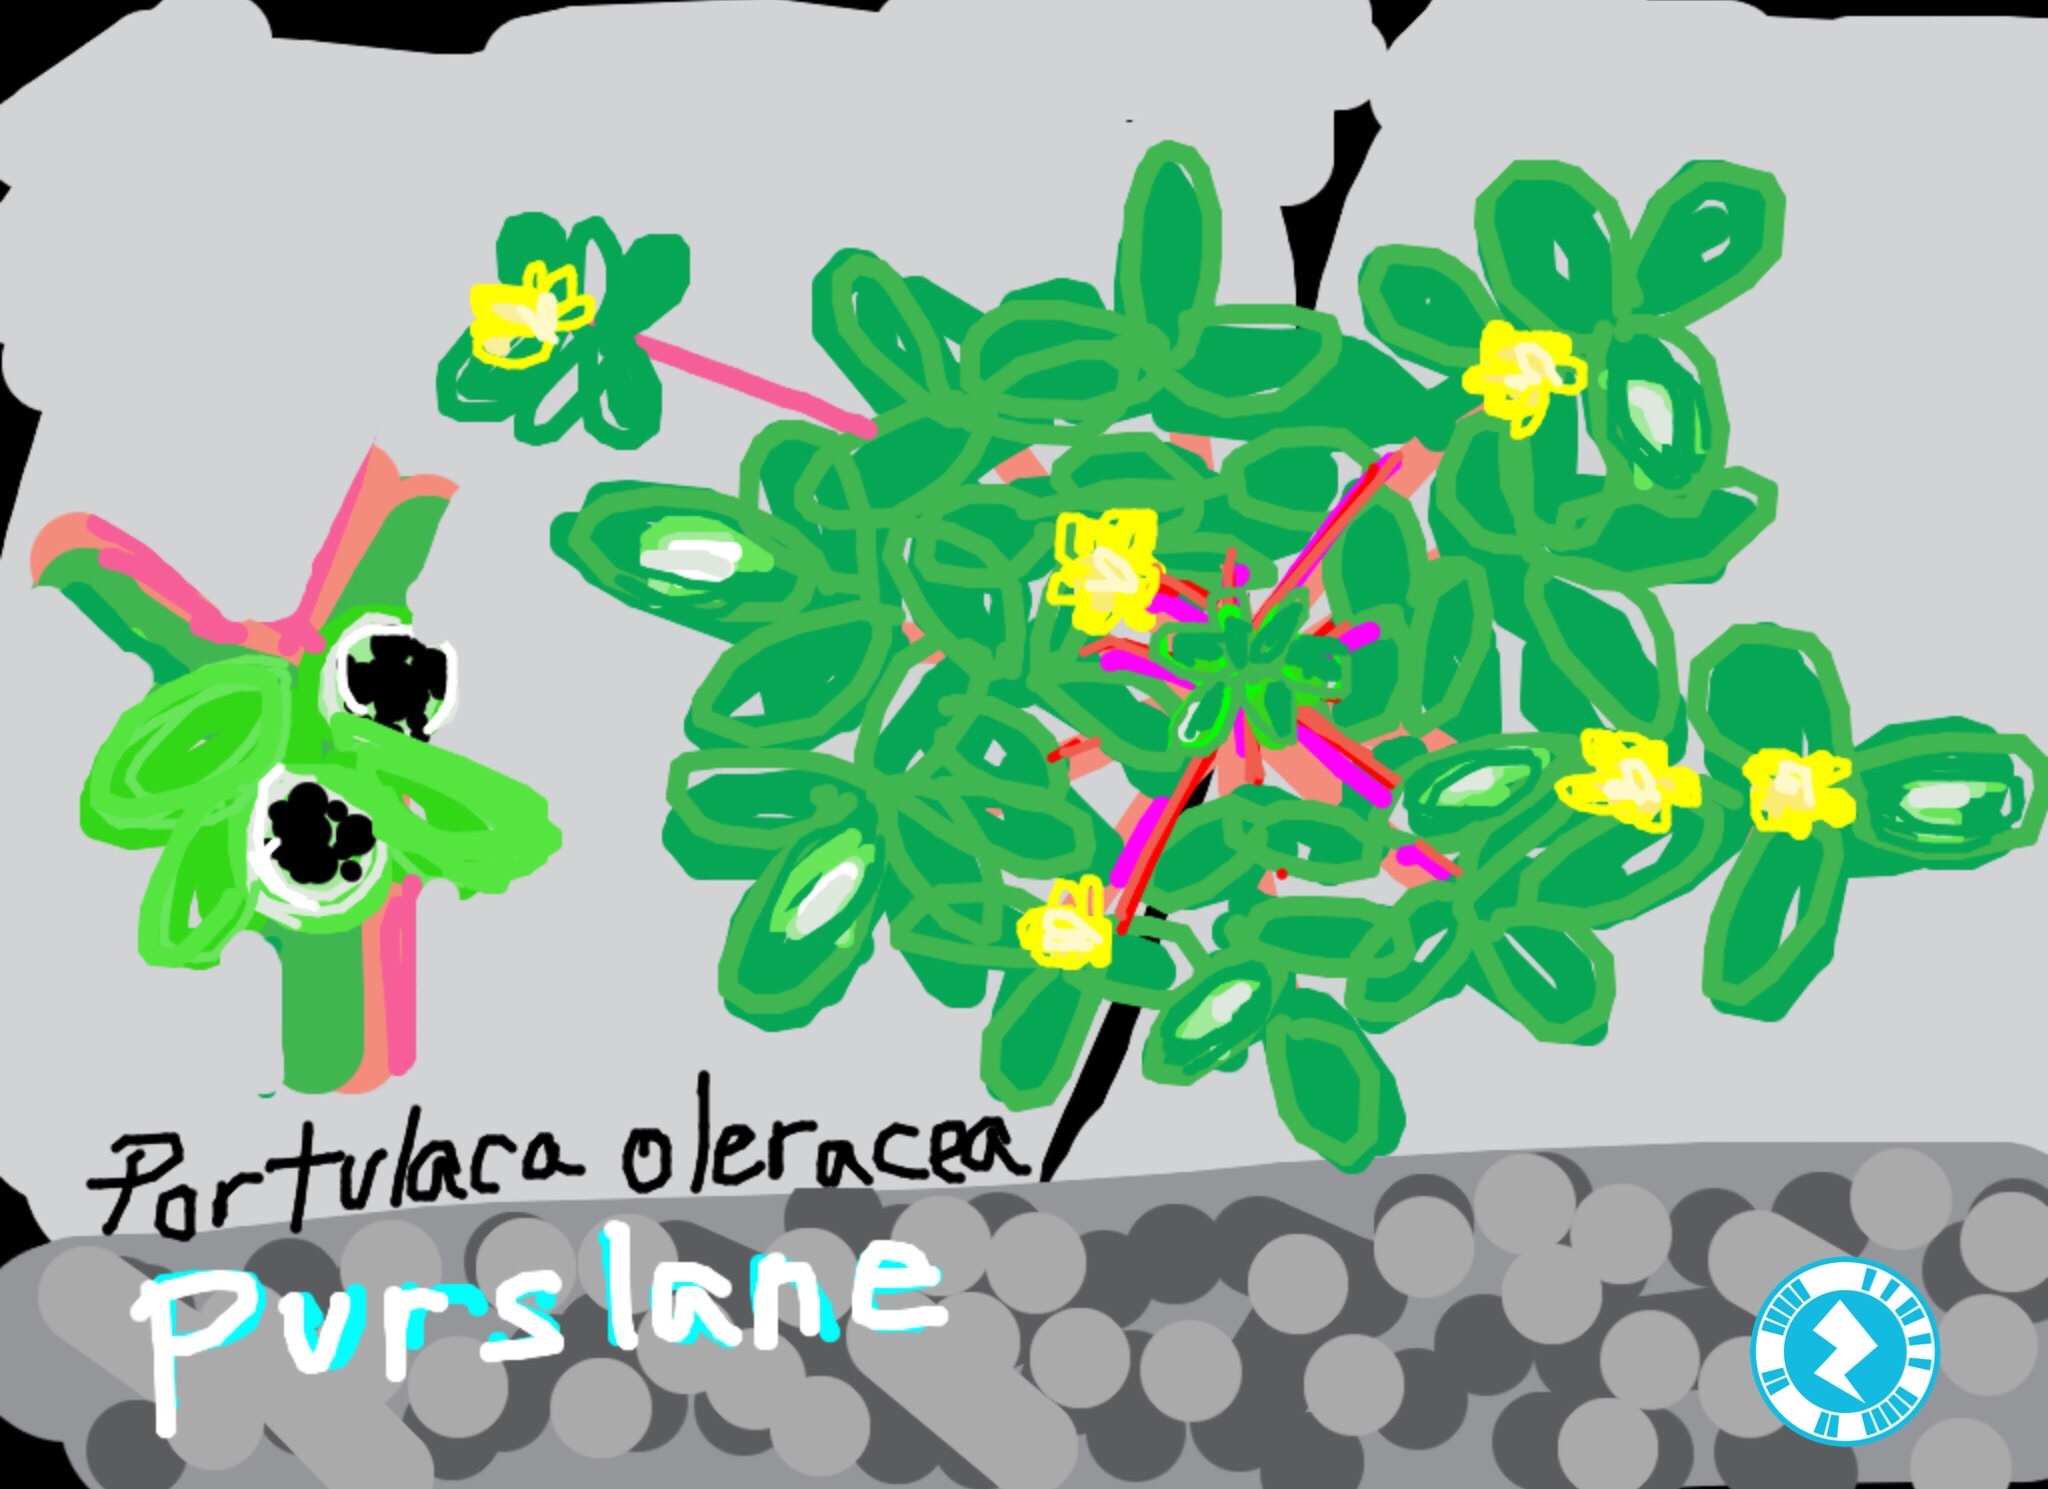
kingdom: Plantae
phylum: Tracheophyta
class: Magnoliopsida
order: Caryophyllales
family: Portulacaceae
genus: Portulaca
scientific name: Portulaca oleracea
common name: Common purslane
